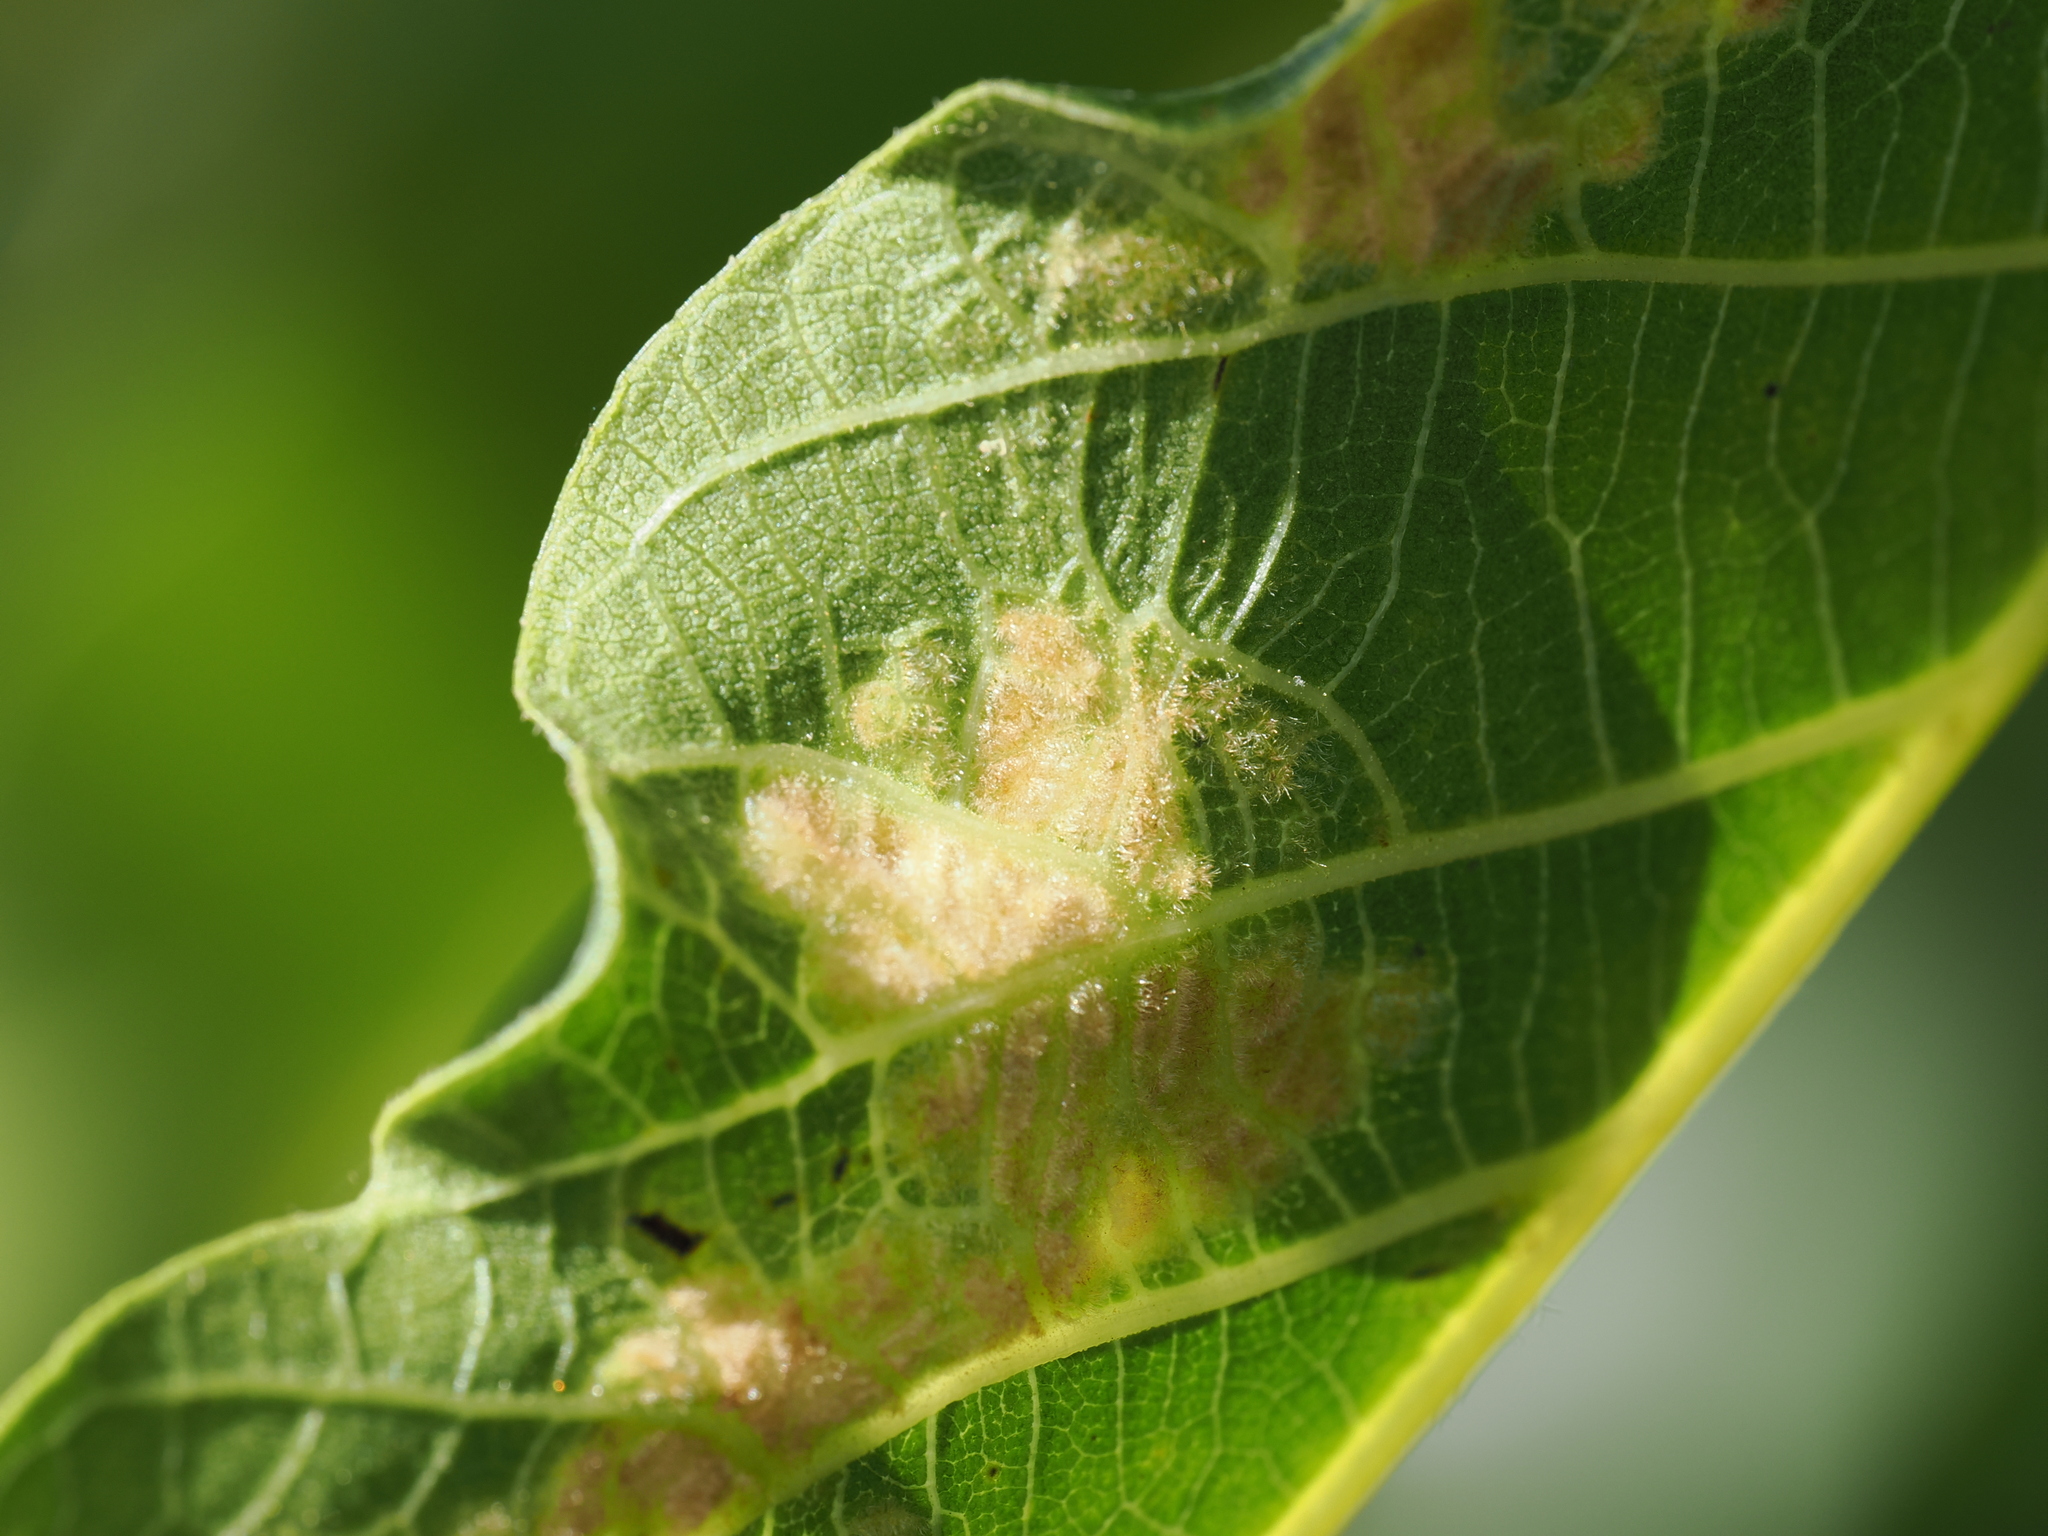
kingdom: Animalia
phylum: Arthropoda
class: Arachnida
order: Trombidiformes
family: Eriophyidae
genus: Aceria
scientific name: Aceria erinea
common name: Persian walnut erineum mite
